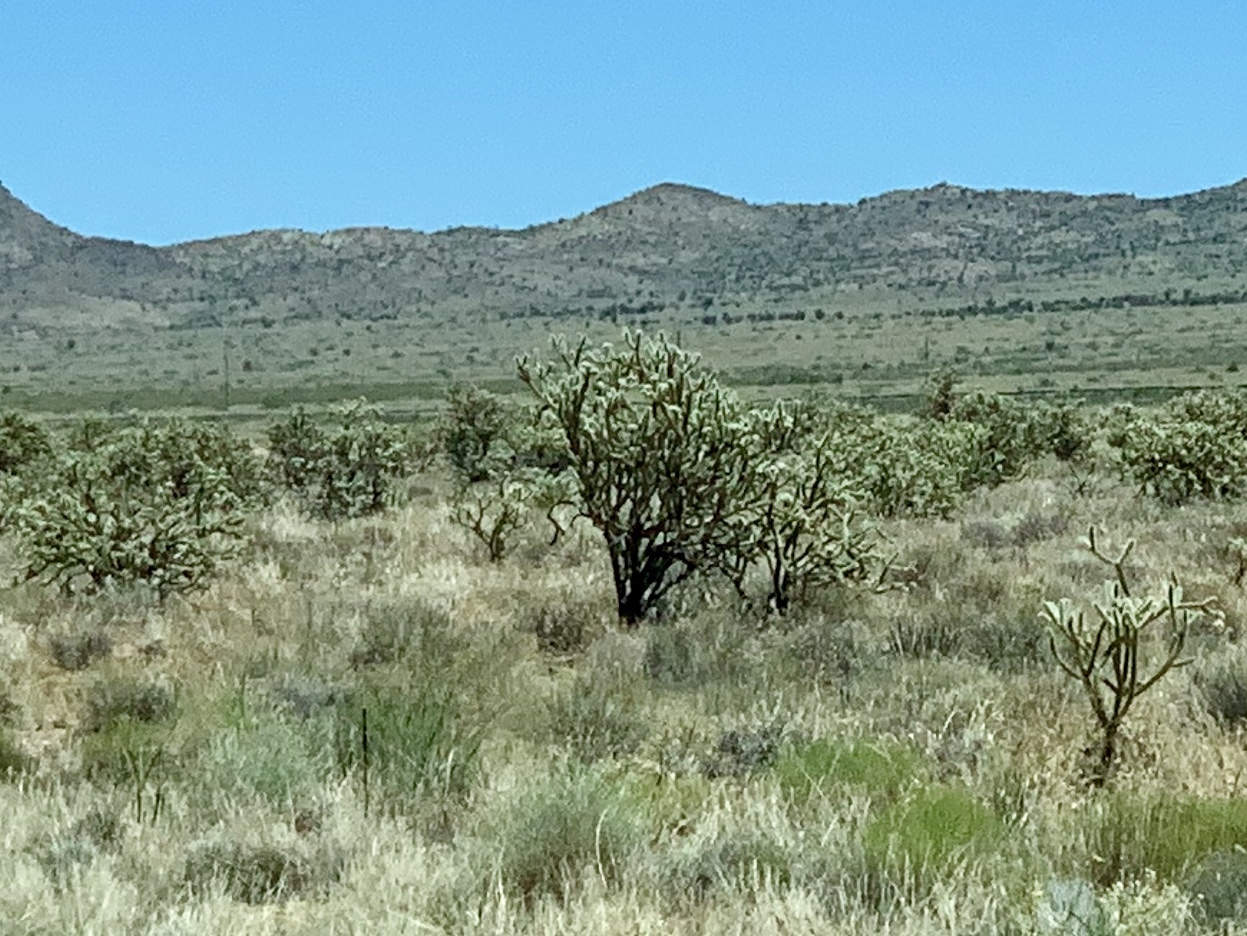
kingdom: Plantae
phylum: Tracheophyta
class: Magnoliopsida
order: Caryophyllales
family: Cactaceae
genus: Cylindropuntia
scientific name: Cylindropuntia acanthocarpa
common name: Buckhorn cholla
